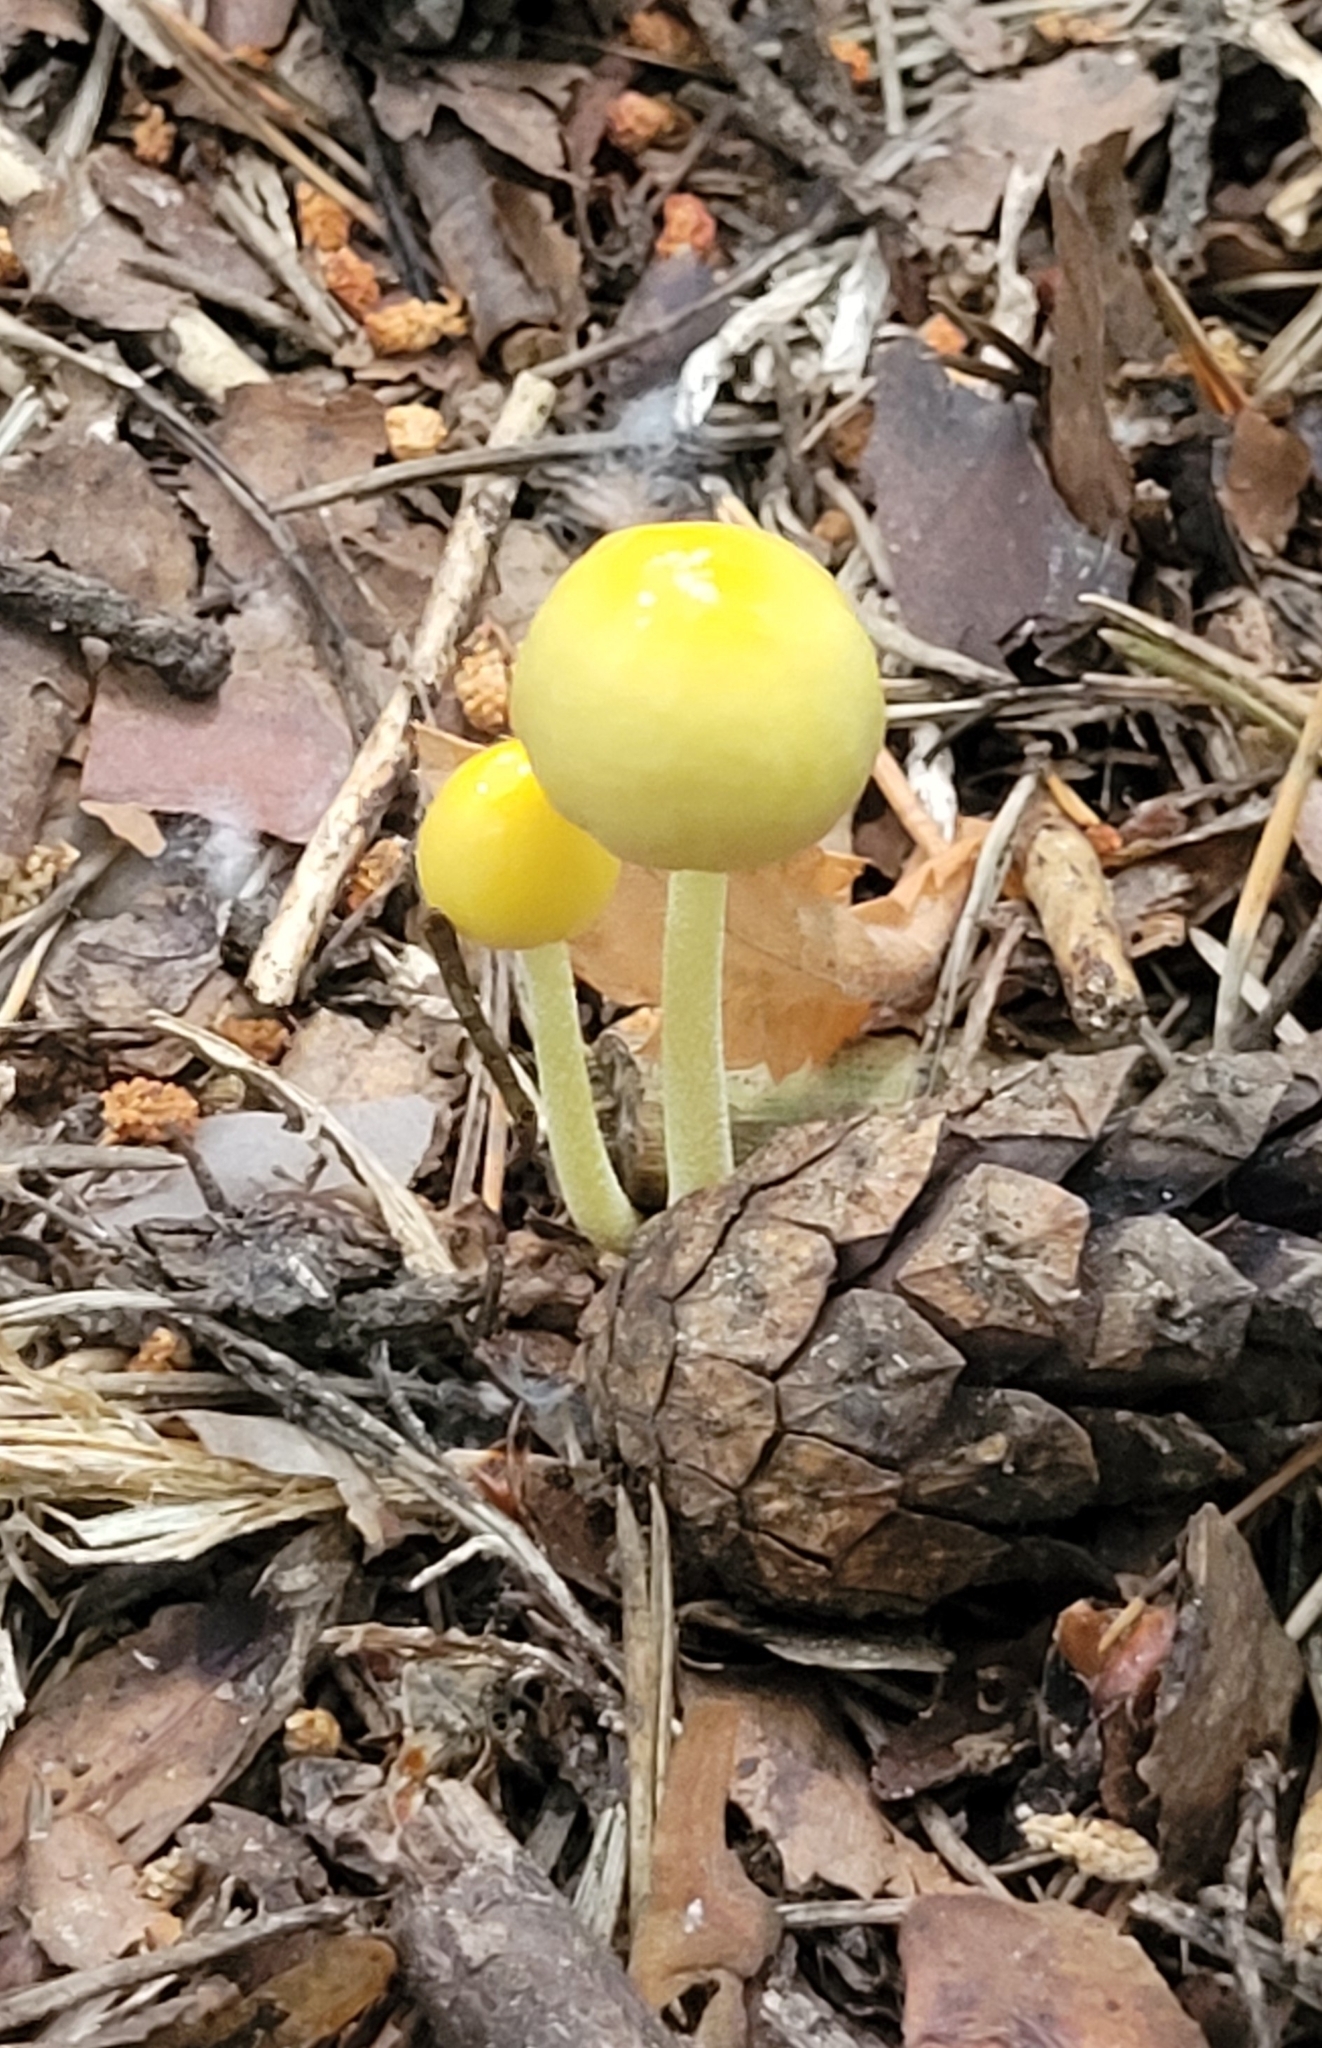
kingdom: Fungi
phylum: Basidiomycota
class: Agaricomycetes
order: Agaricales
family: Bolbitiaceae
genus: Bolbitius
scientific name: Bolbitius titubans
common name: Yellow fieldcap
